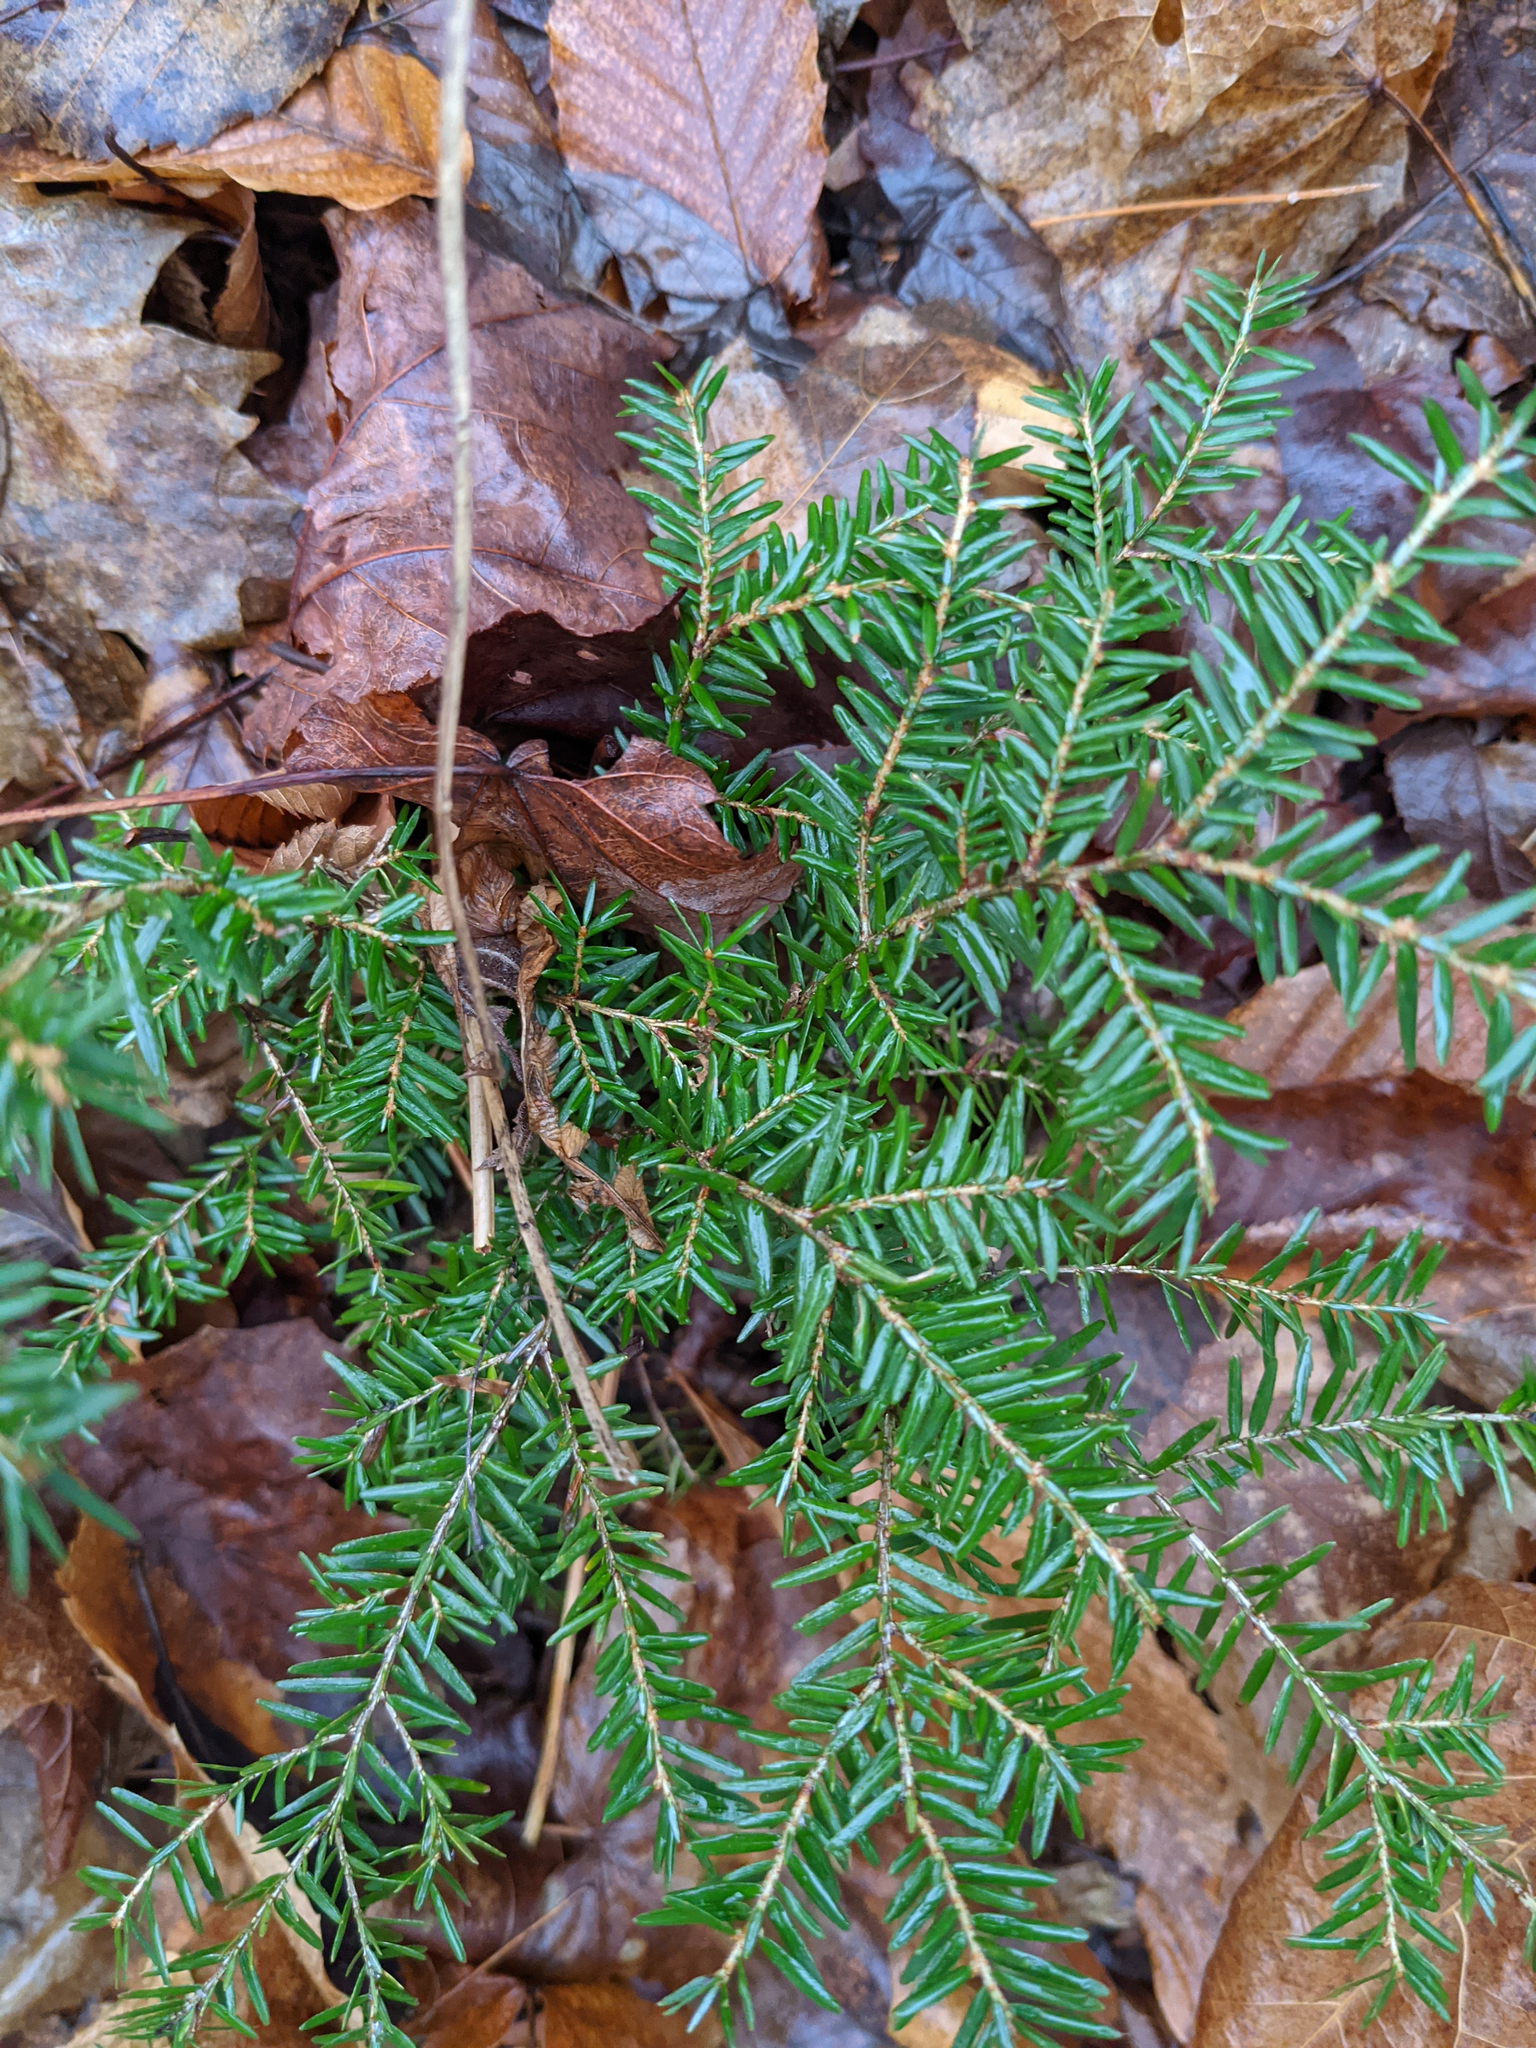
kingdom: Plantae
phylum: Tracheophyta
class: Pinopsida
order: Pinales
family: Pinaceae
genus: Tsuga
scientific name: Tsuga canadensis
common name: Eastern hemlock
